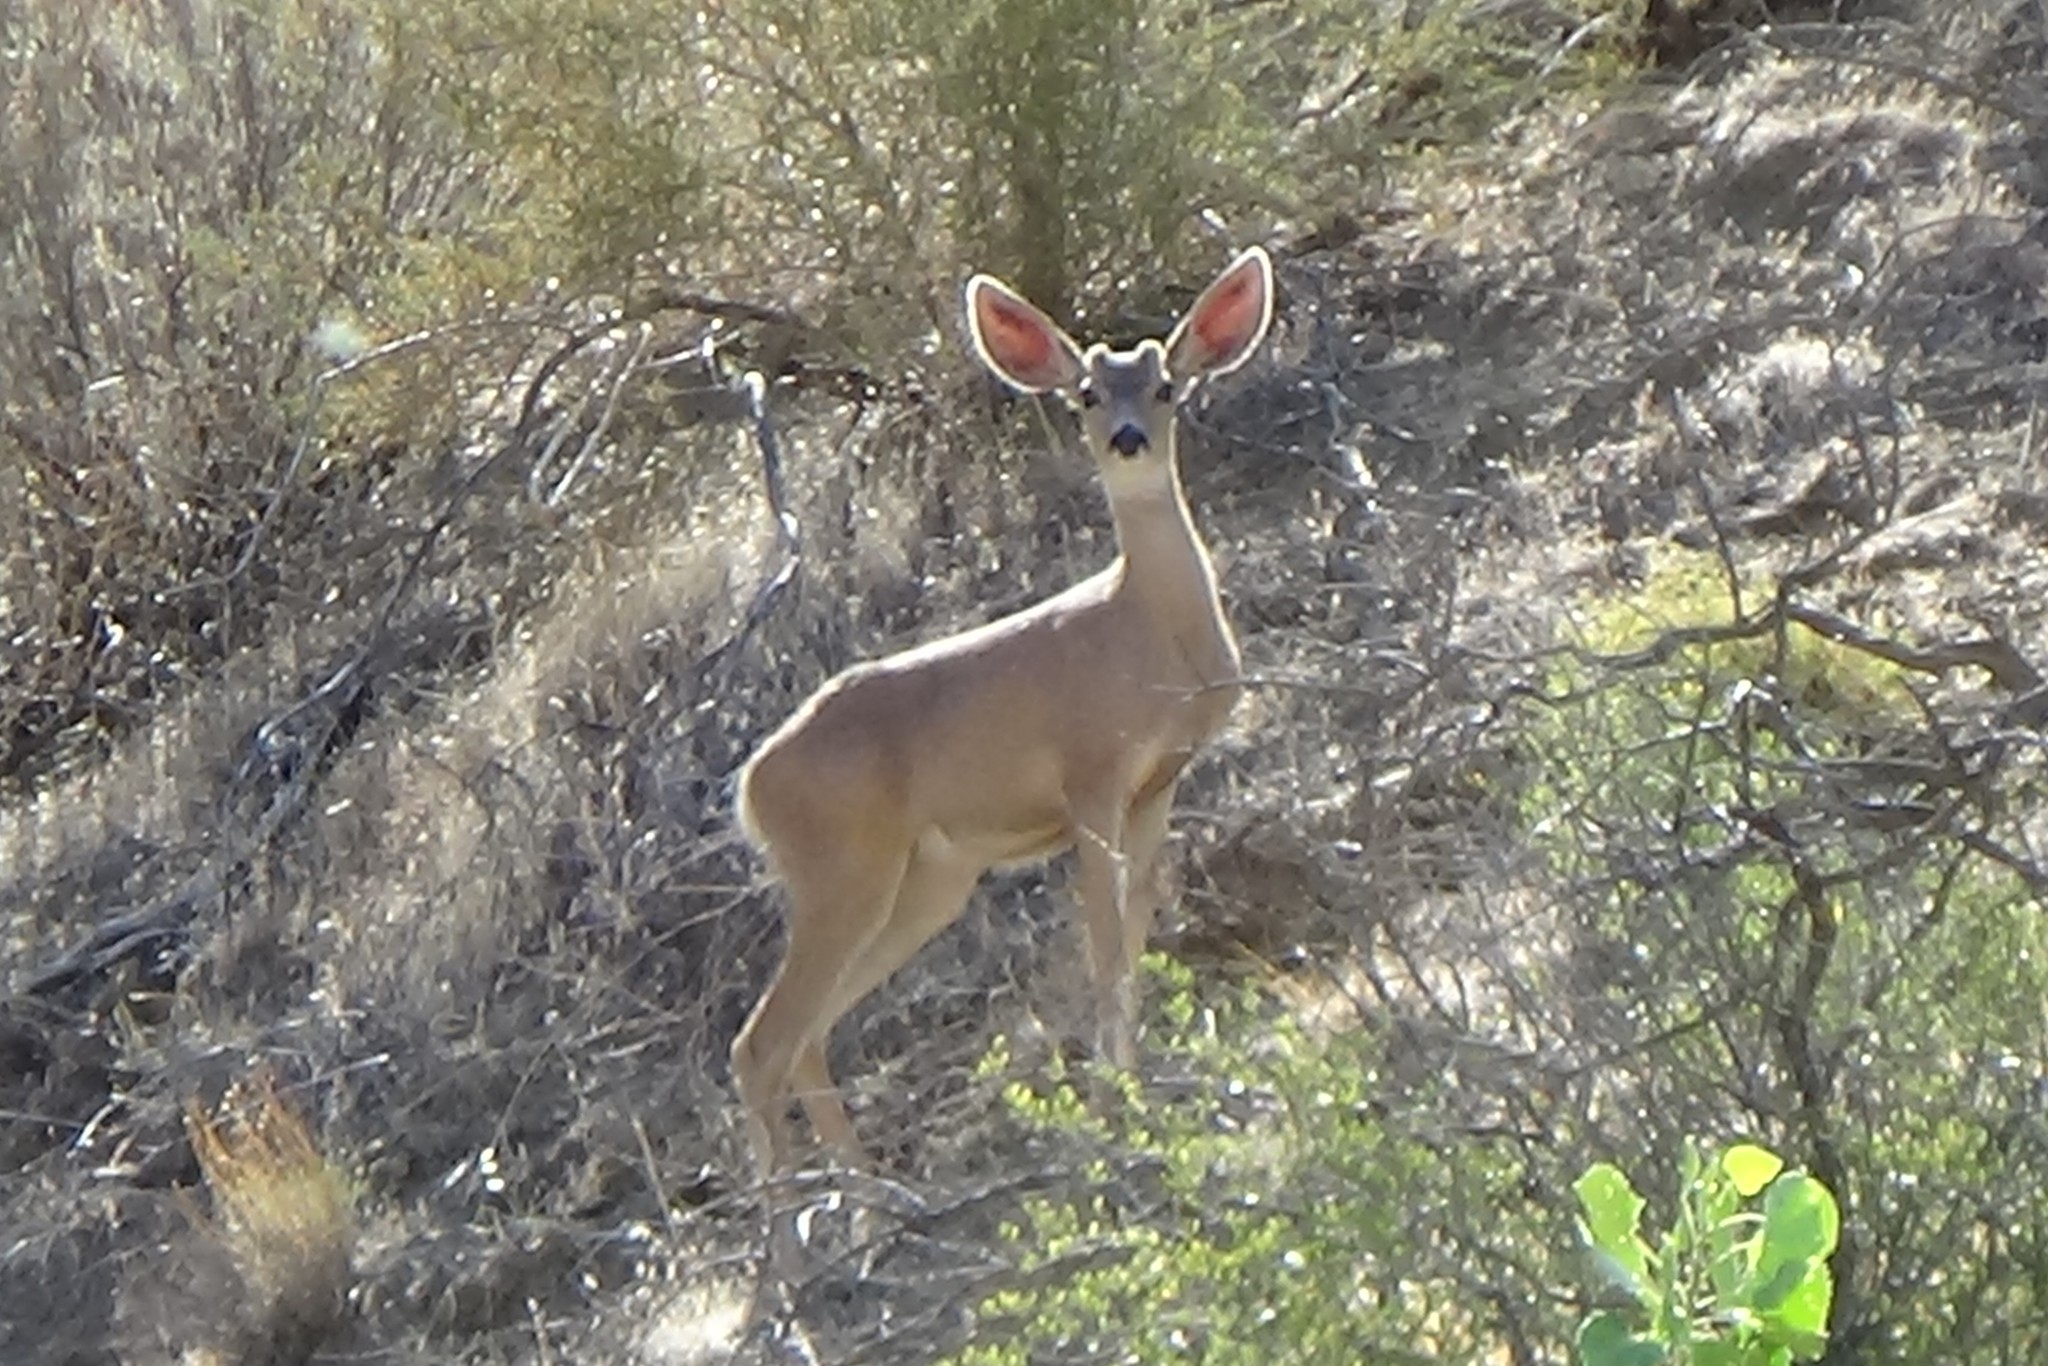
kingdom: Animalia
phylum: Chordata
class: Mammalia
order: Artiodactyla
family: Cervidae
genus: Odocoileus
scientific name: Odocoileus hemionus
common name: Mule deer
